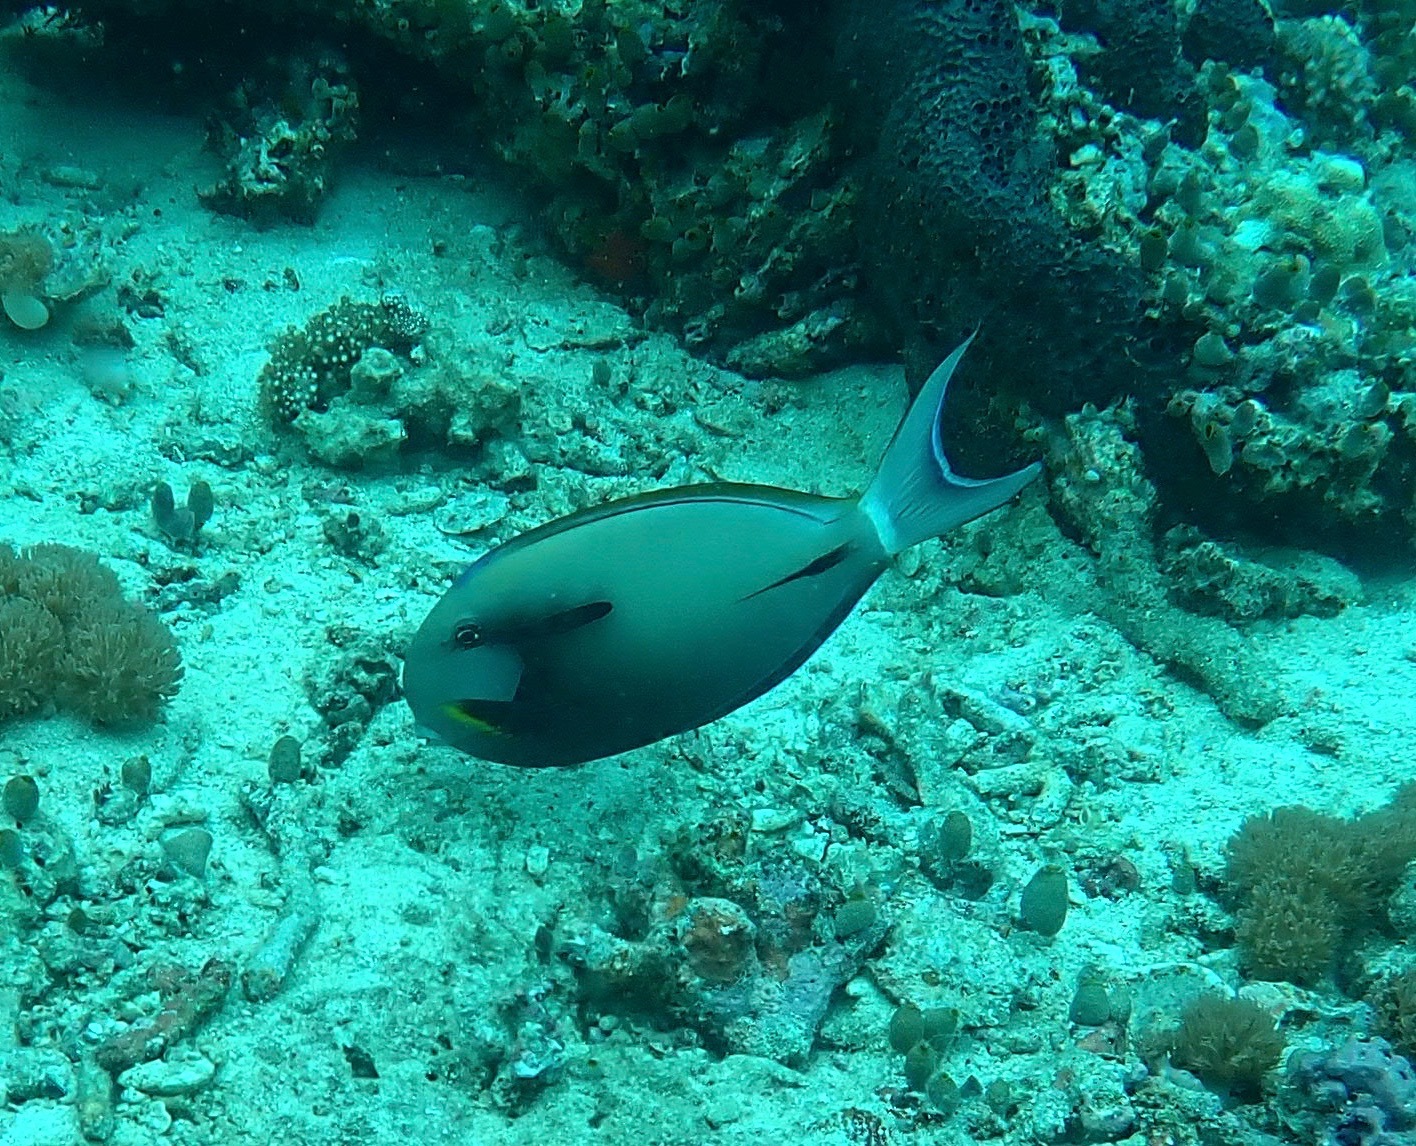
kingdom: Animalia
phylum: Chordata
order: Perciformes
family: Acanthuridae
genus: Acanthurus
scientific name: Acanthurus nigricauda
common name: Black-barred surgeonfish
